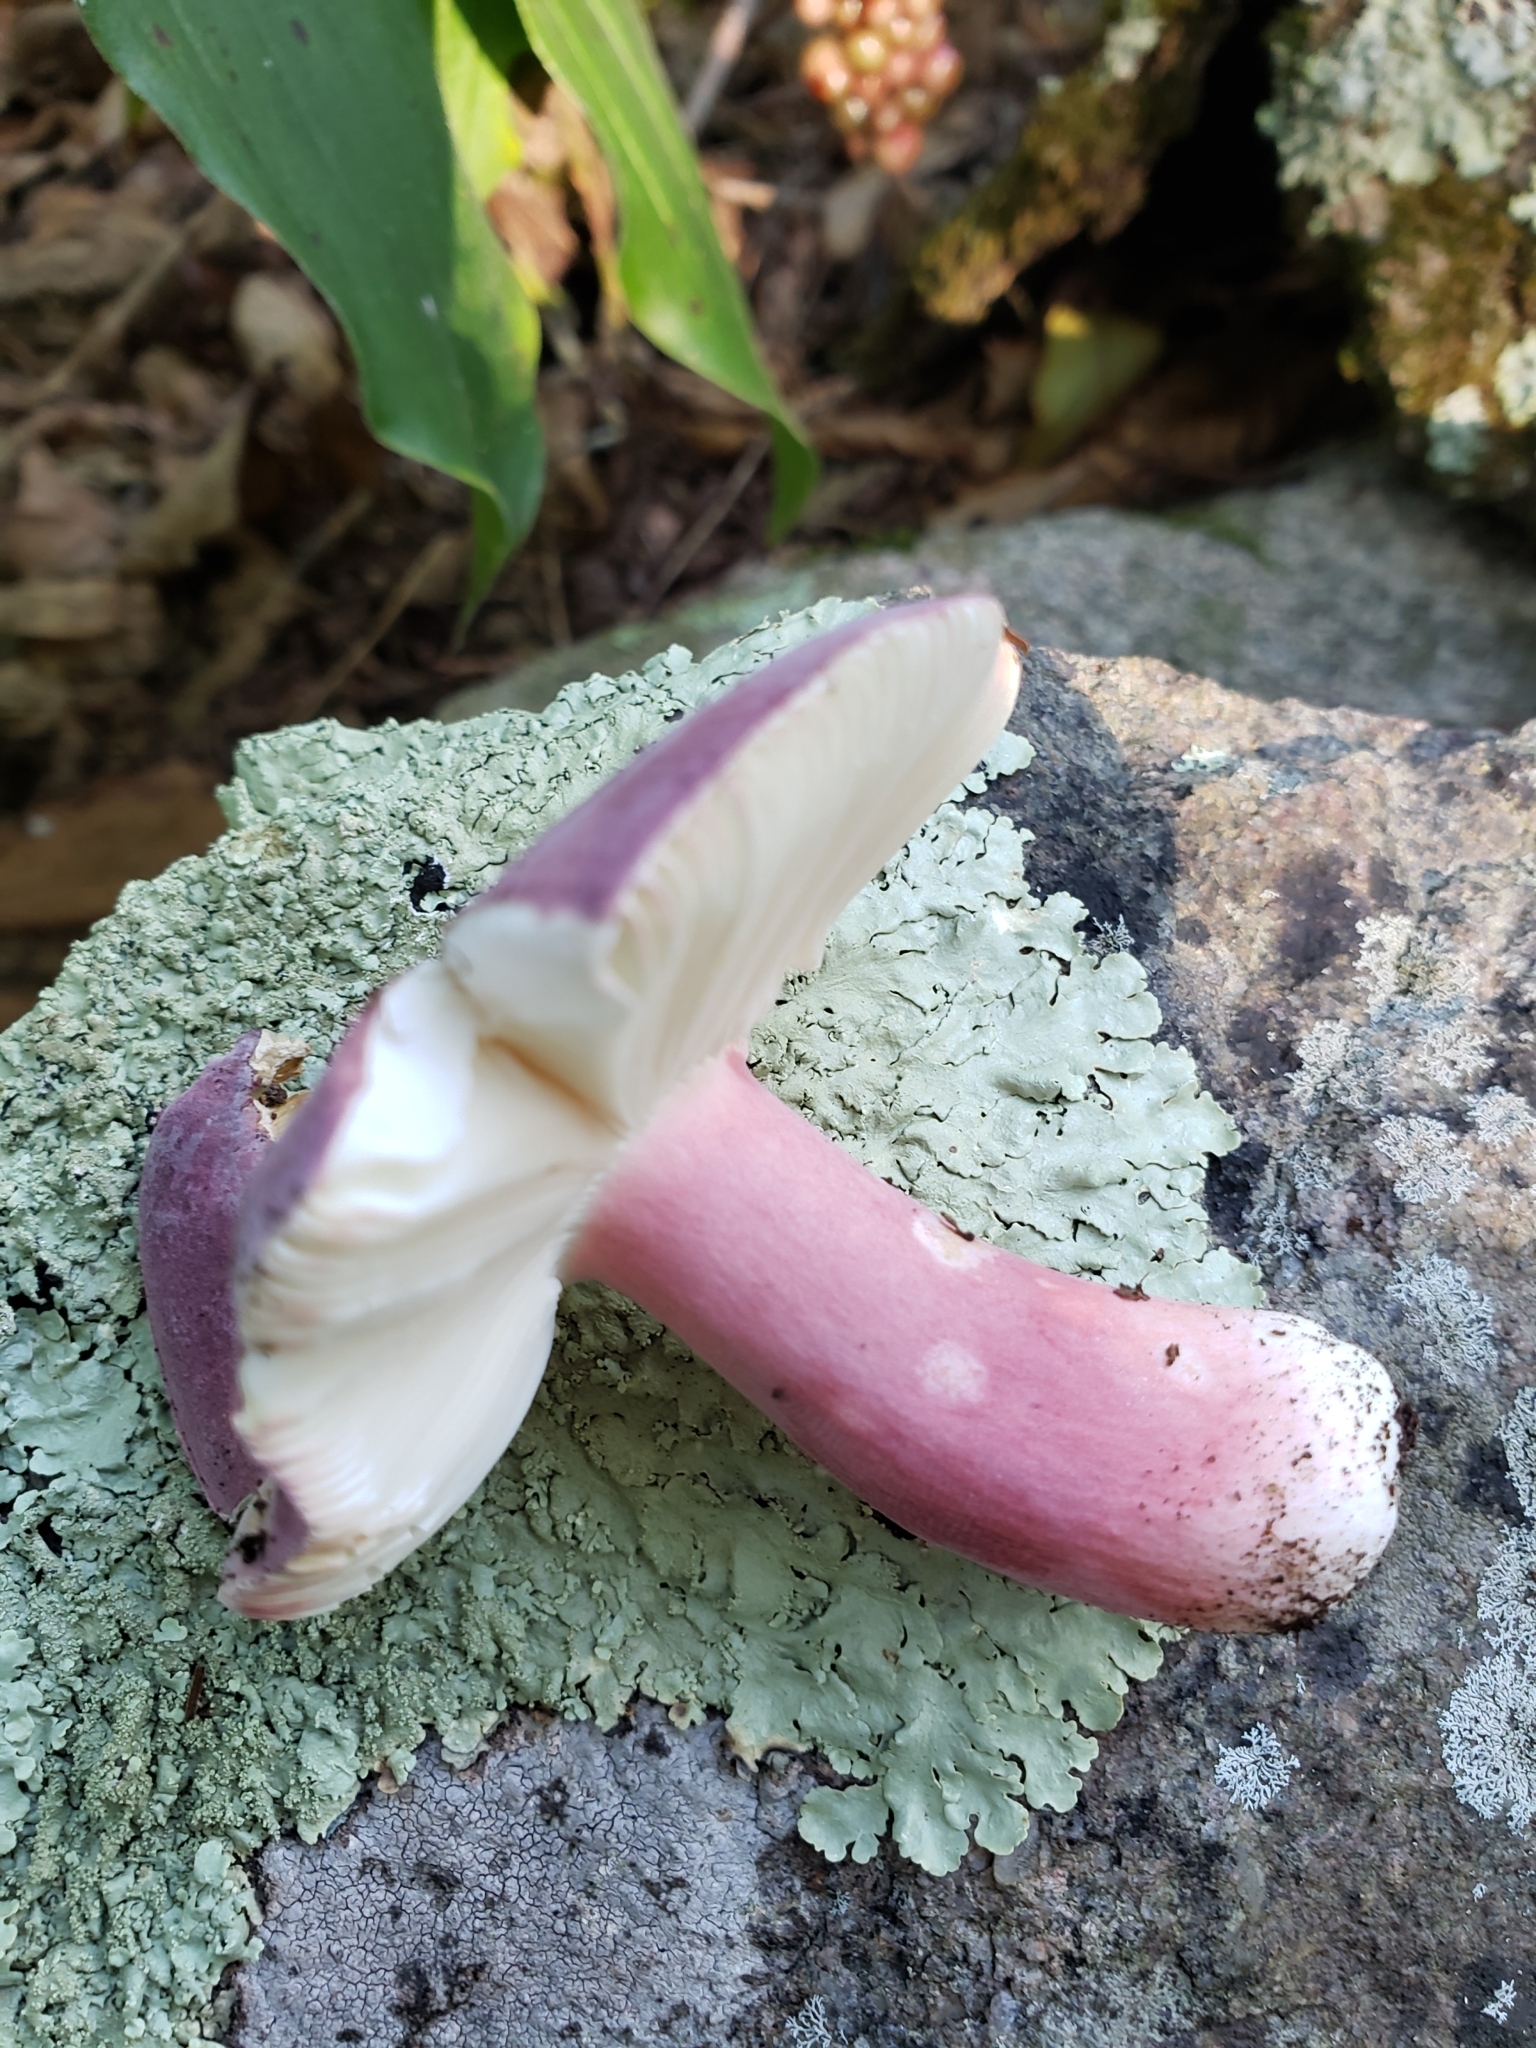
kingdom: Fungi
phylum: Basidiomycota
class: Agaricomycetes
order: Russulales
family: Russulaceae
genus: Russula
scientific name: Russula mariae
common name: Purple-bloom russula
